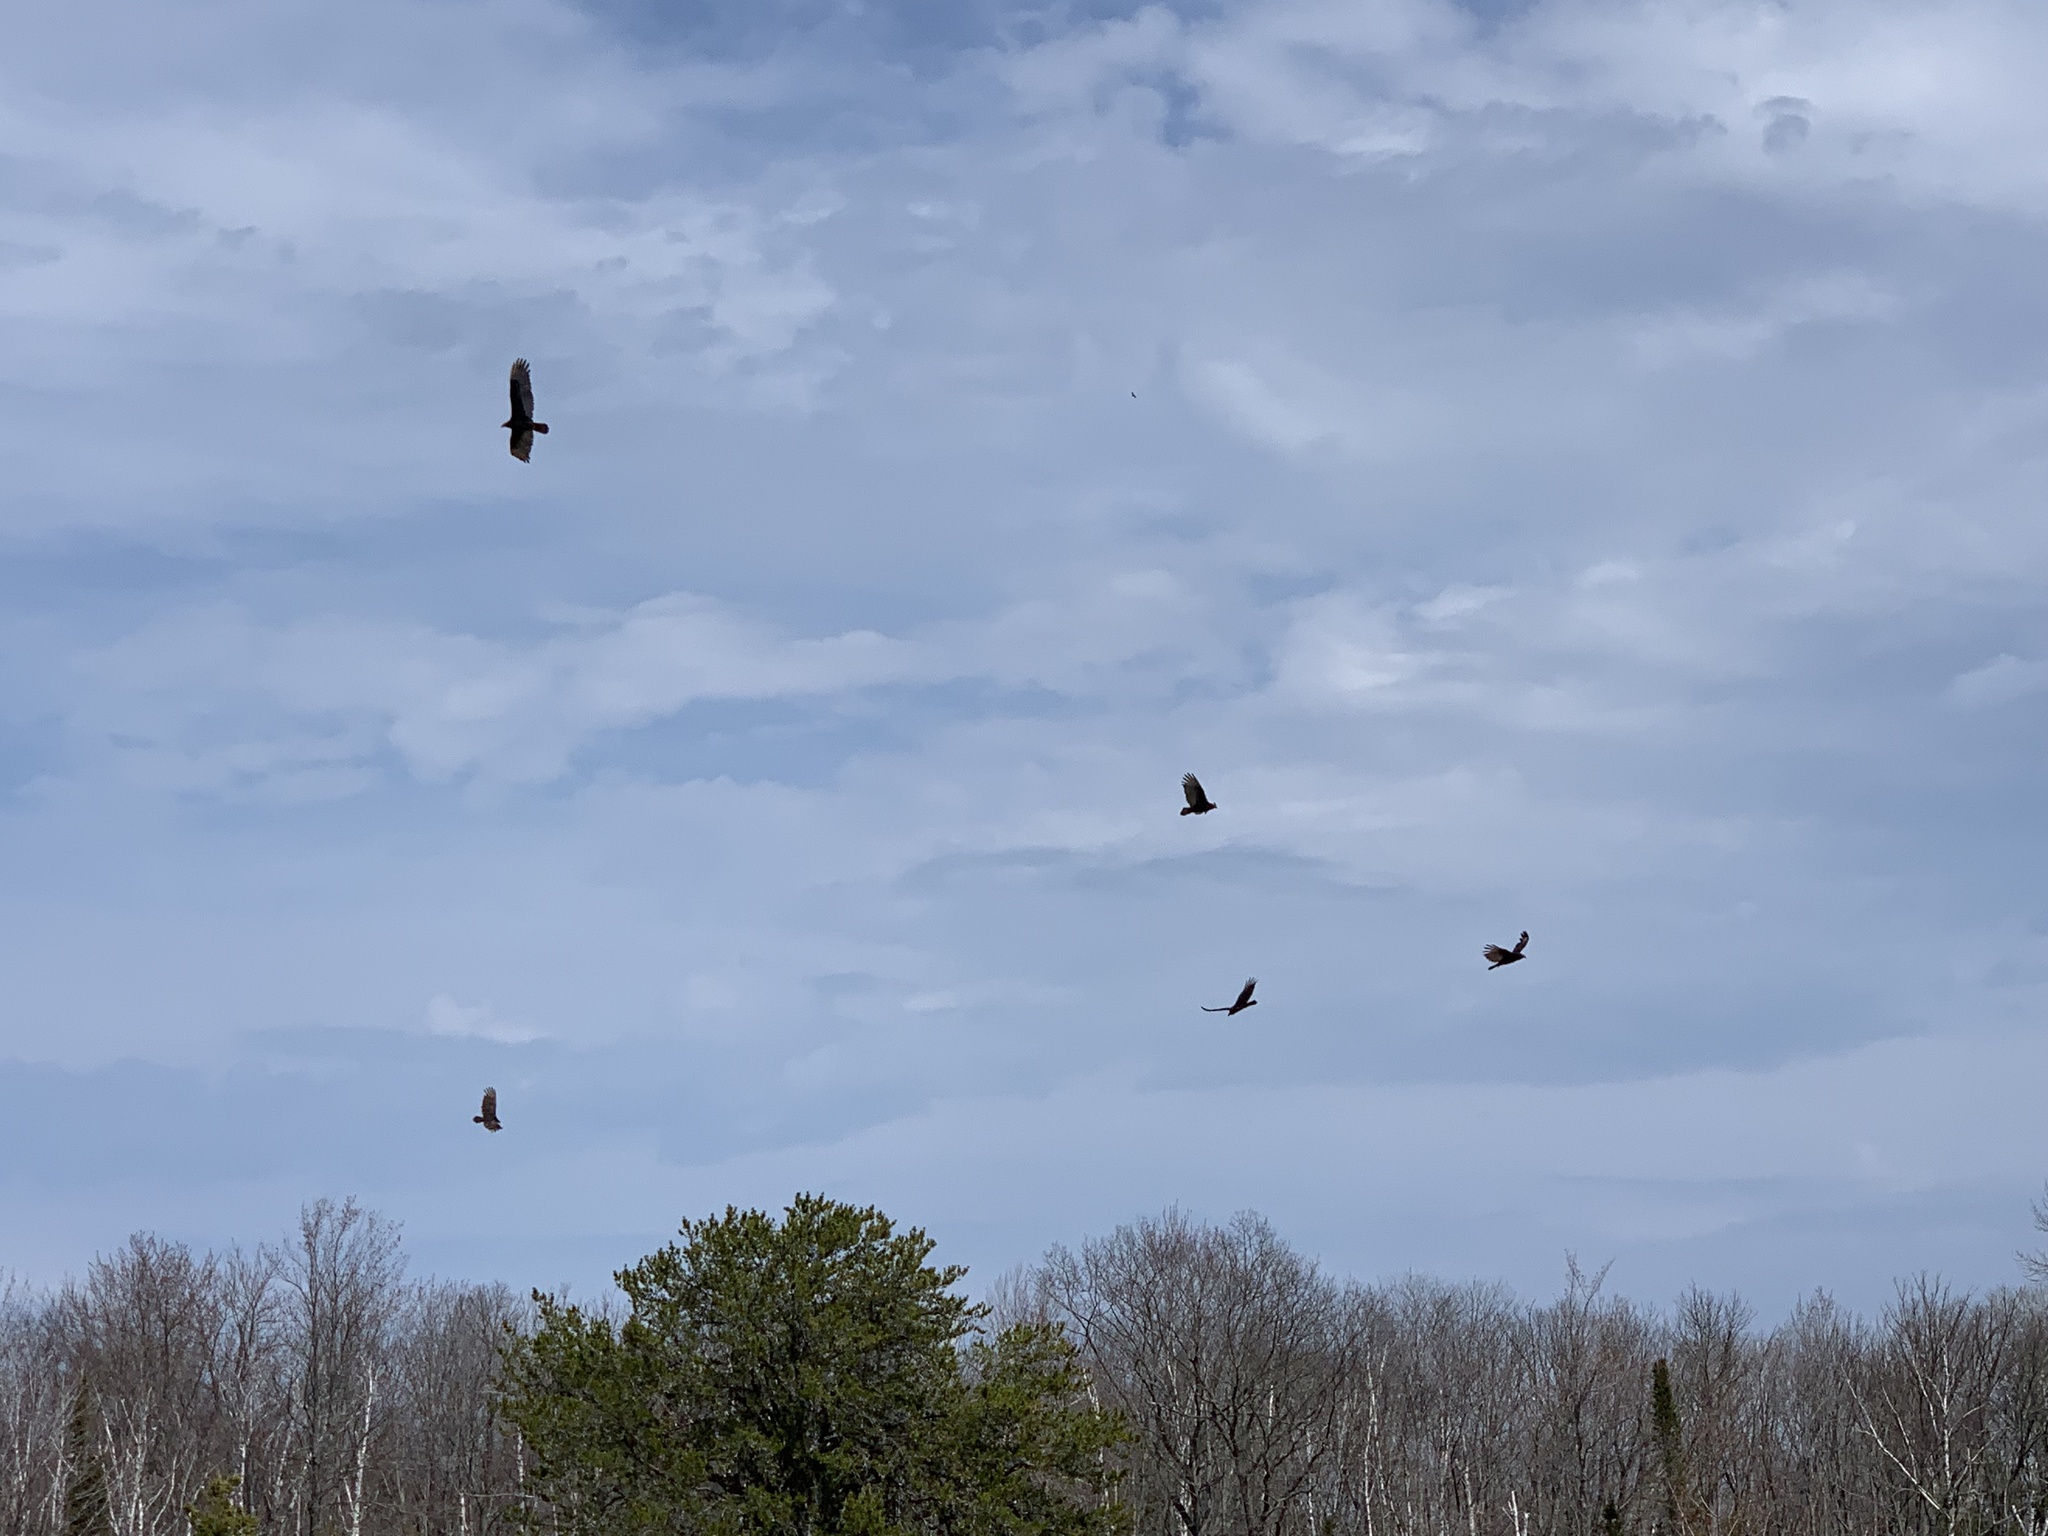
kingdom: Animalia
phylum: Chordata
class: Aves
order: Accipitriformes
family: Cathartidae
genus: Cathartes
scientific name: Cathartes aura
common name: Turkey vulture
